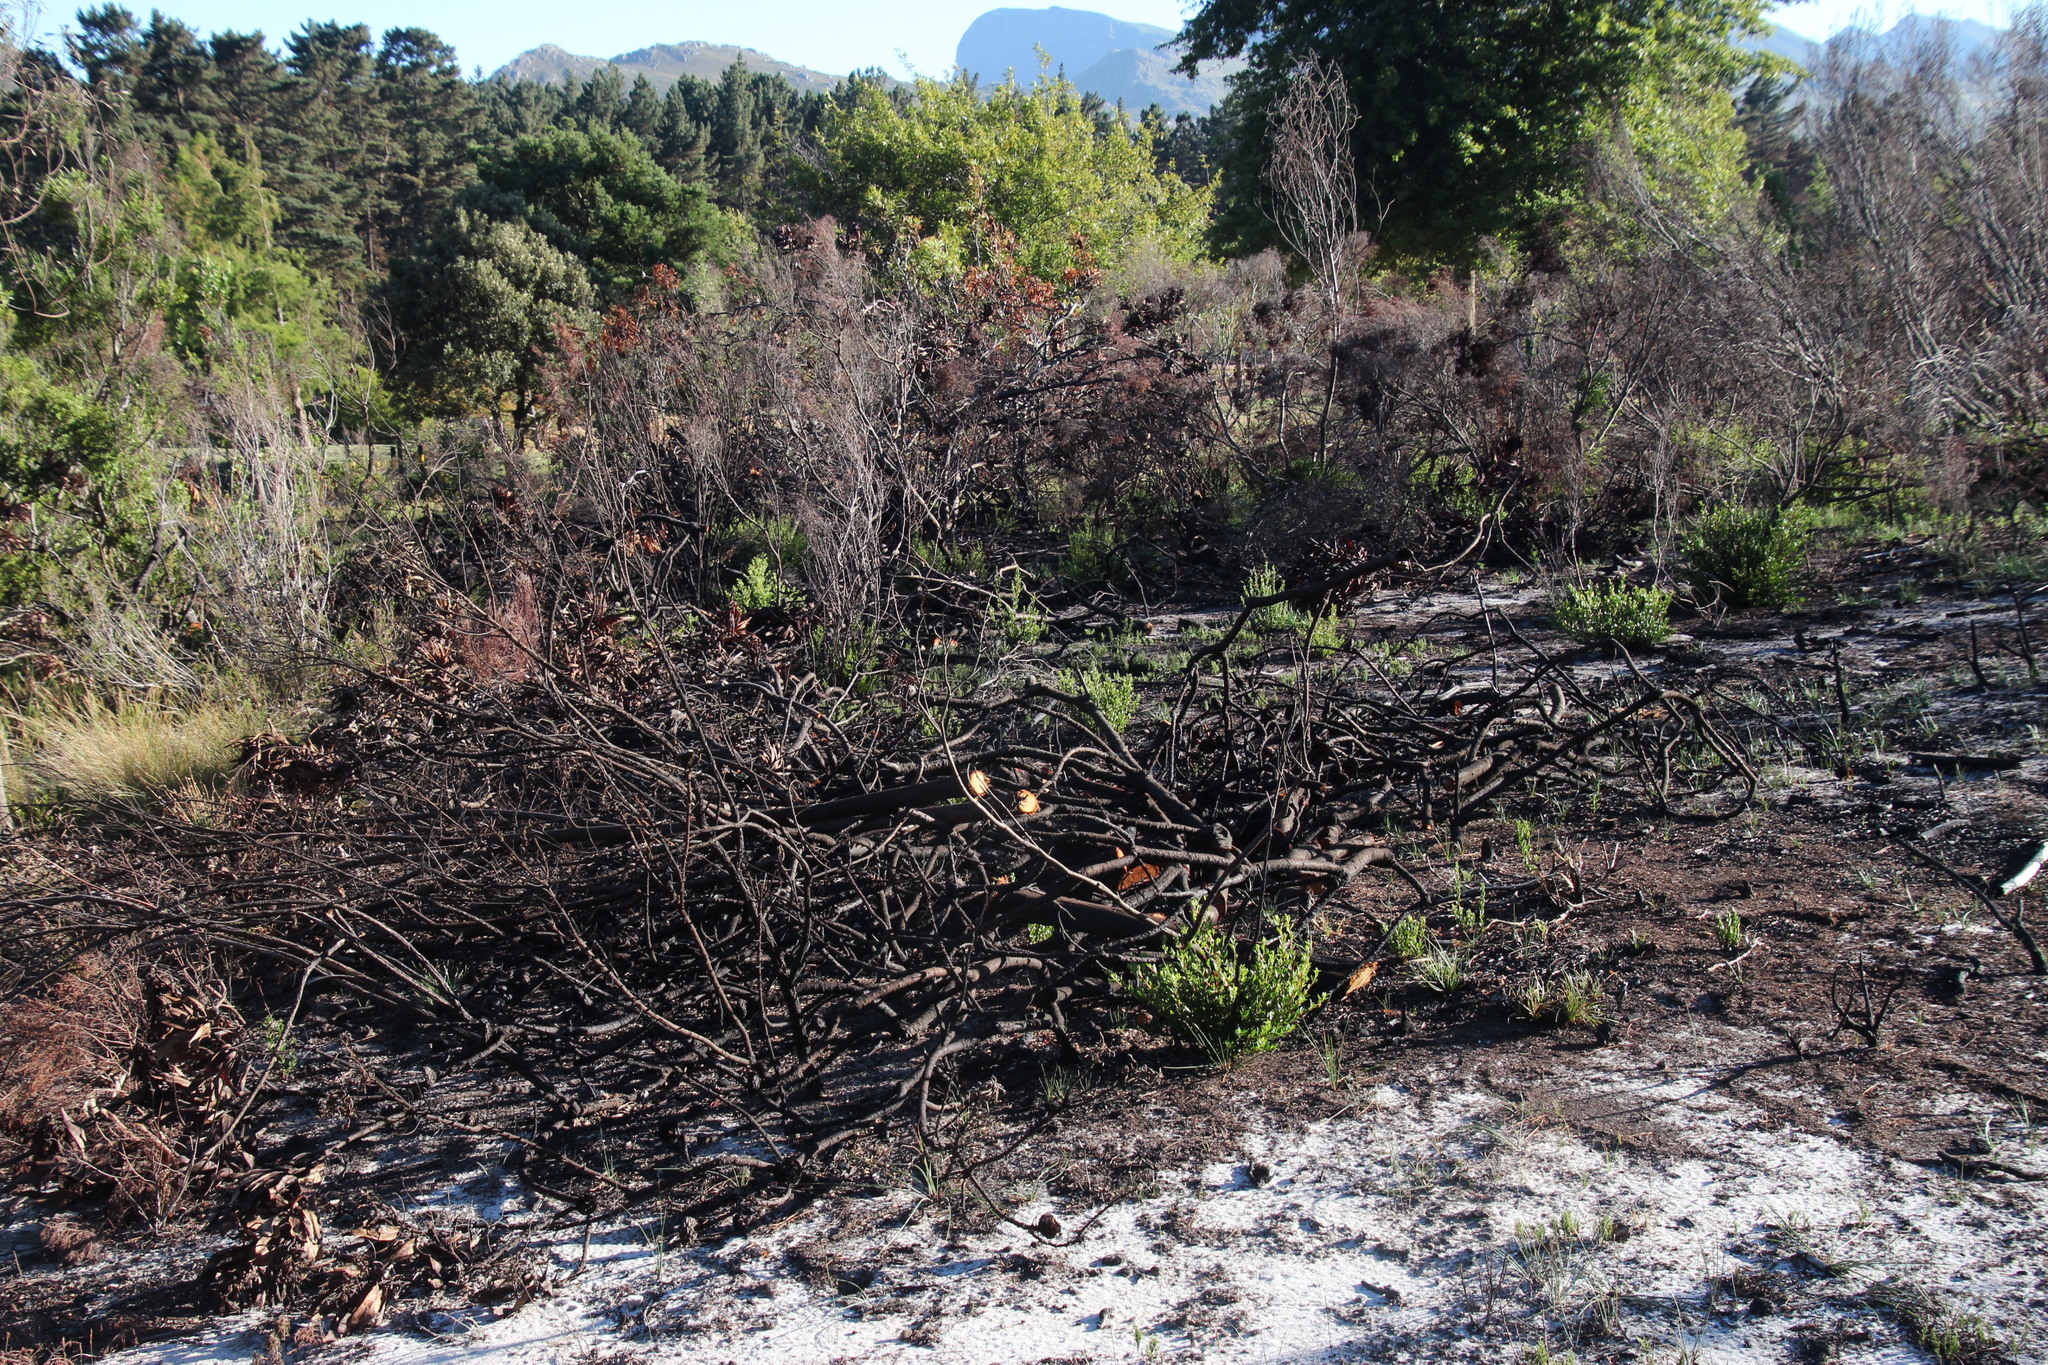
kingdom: Plantae
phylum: Tracheophyta
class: Magnoliopsida
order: Proteales
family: Proteaceae
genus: Protea
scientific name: Protea eximia
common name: Broad-leaved sugarbush
